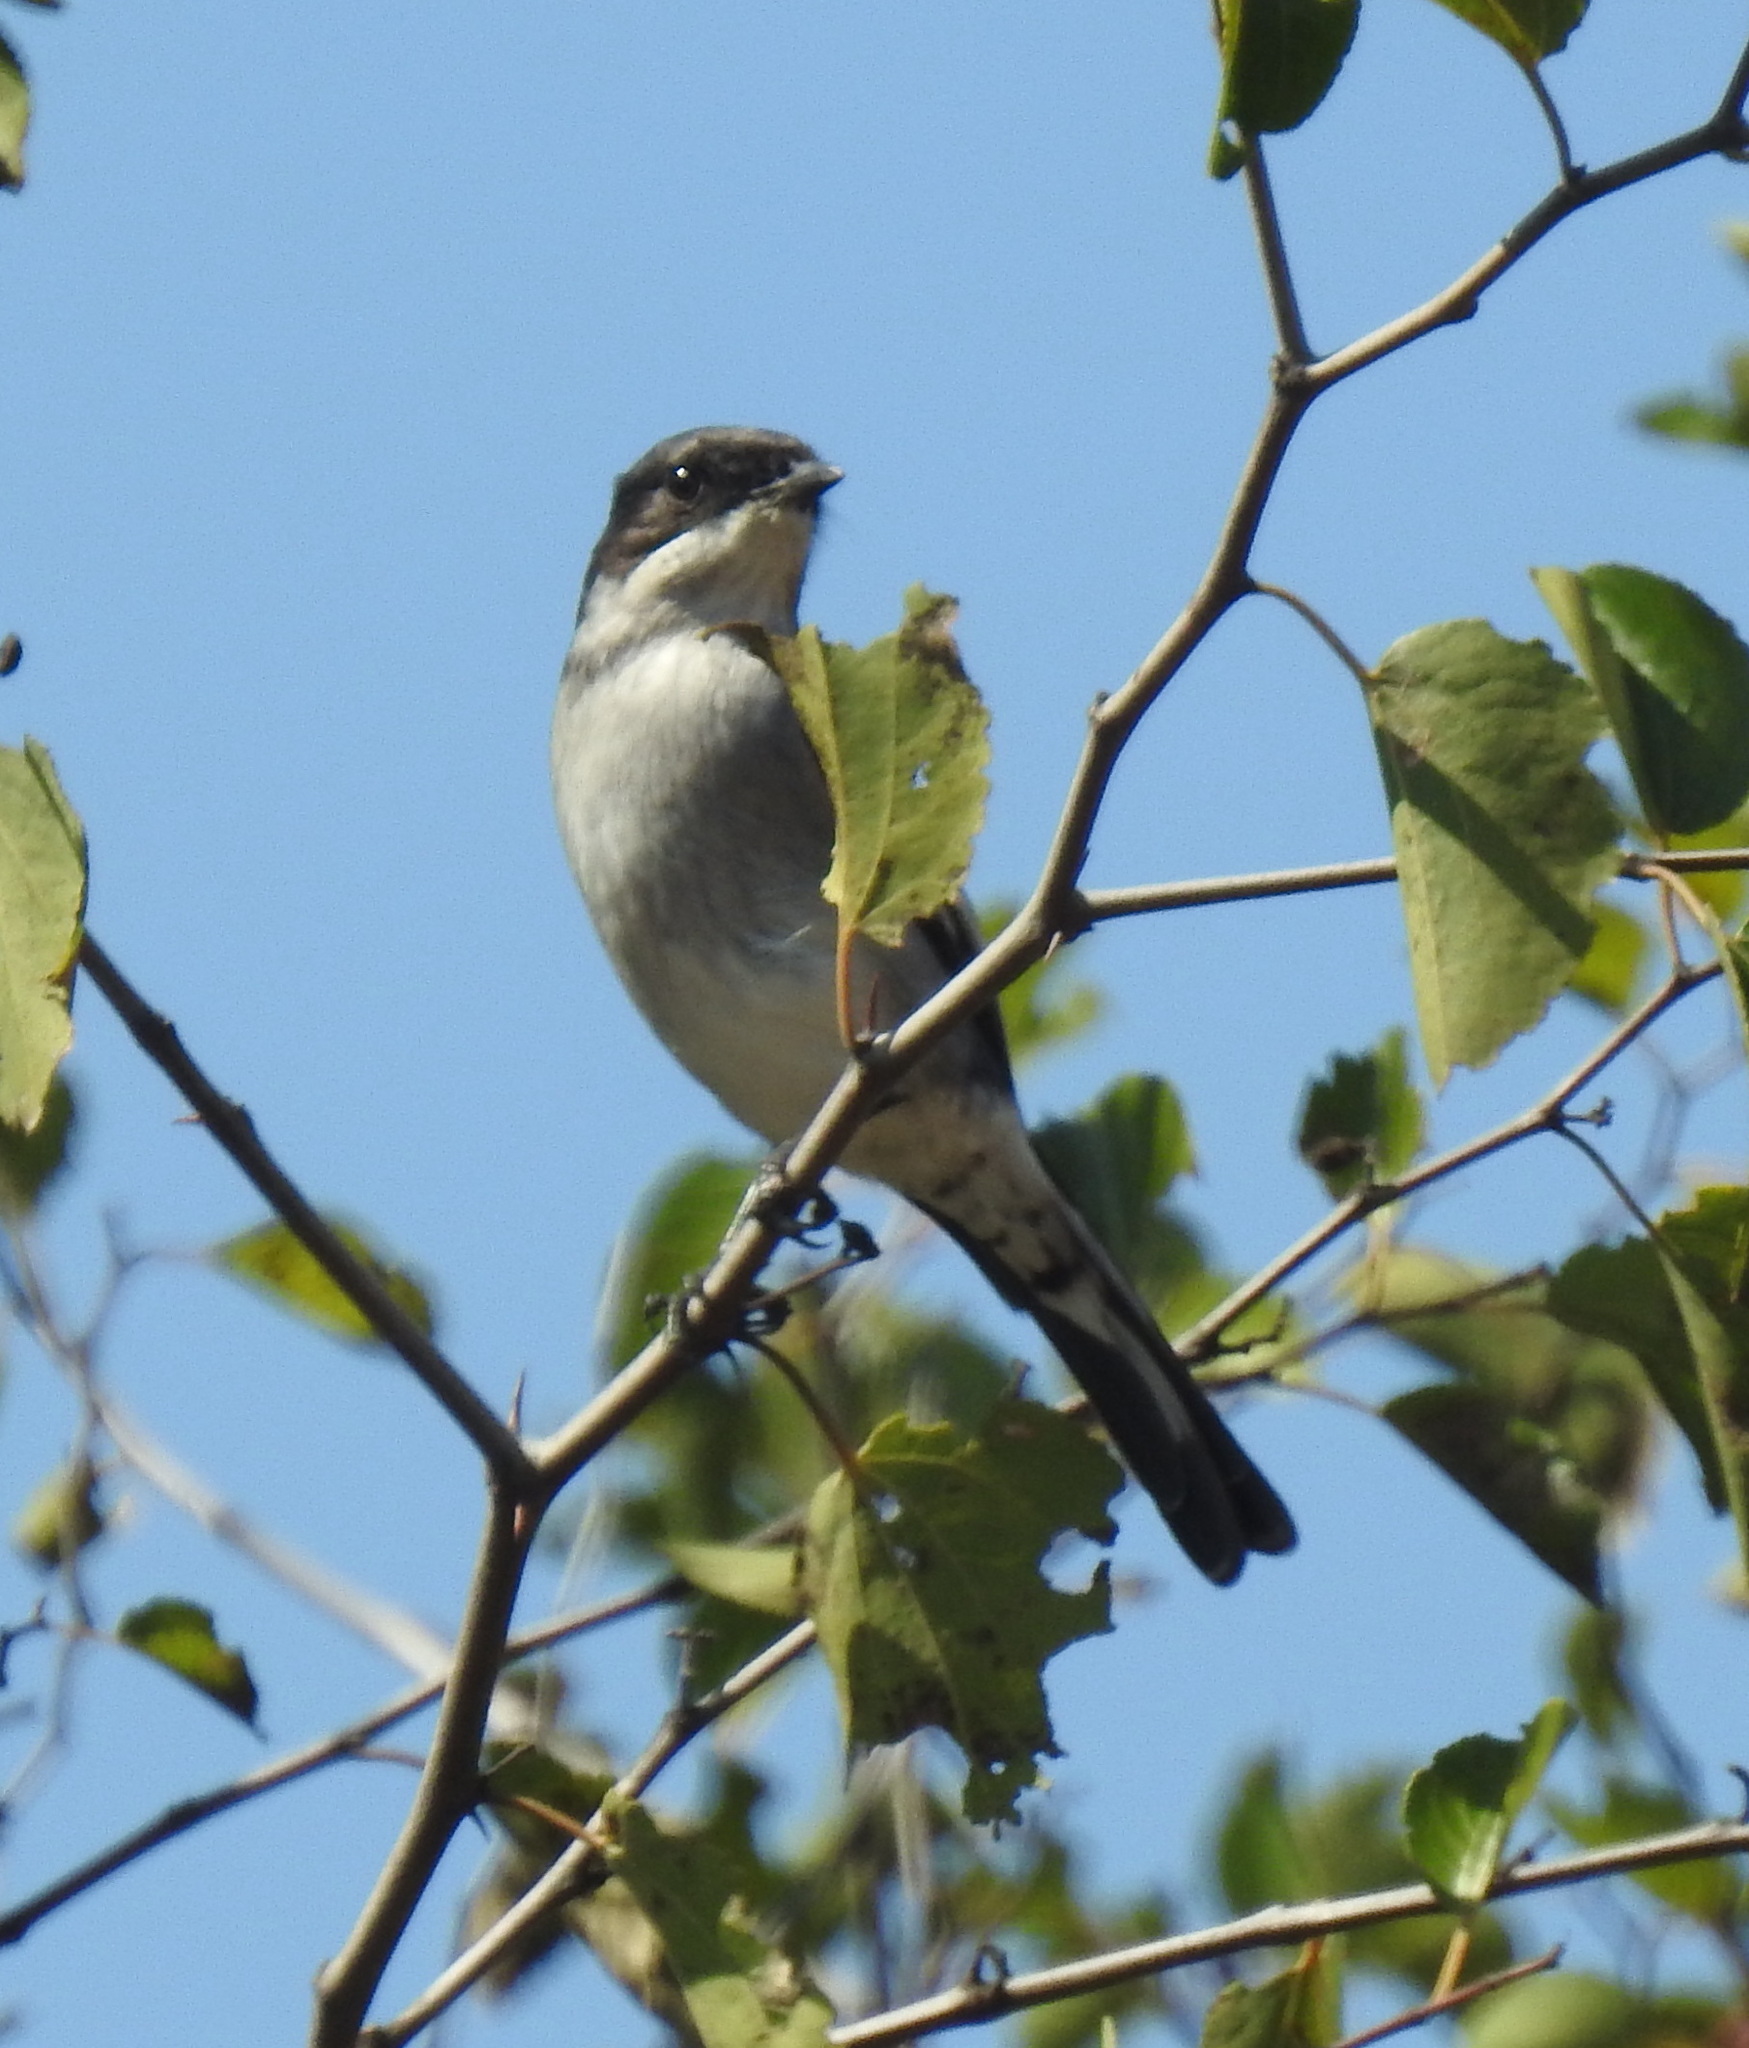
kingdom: Animalia
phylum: Chordata
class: Aves
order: Passeriformes
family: Muscicapidae
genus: Sigelus
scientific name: Sigelus silens
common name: Fiscal flycatcher
